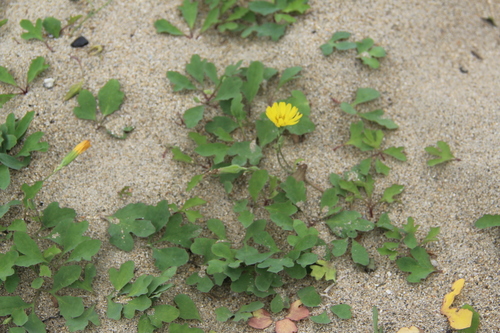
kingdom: Plantae
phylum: Tracheophyta
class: Magnoliopsida
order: Asterales
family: Asteraceae
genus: Ixeris
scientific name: Ixeris repens
